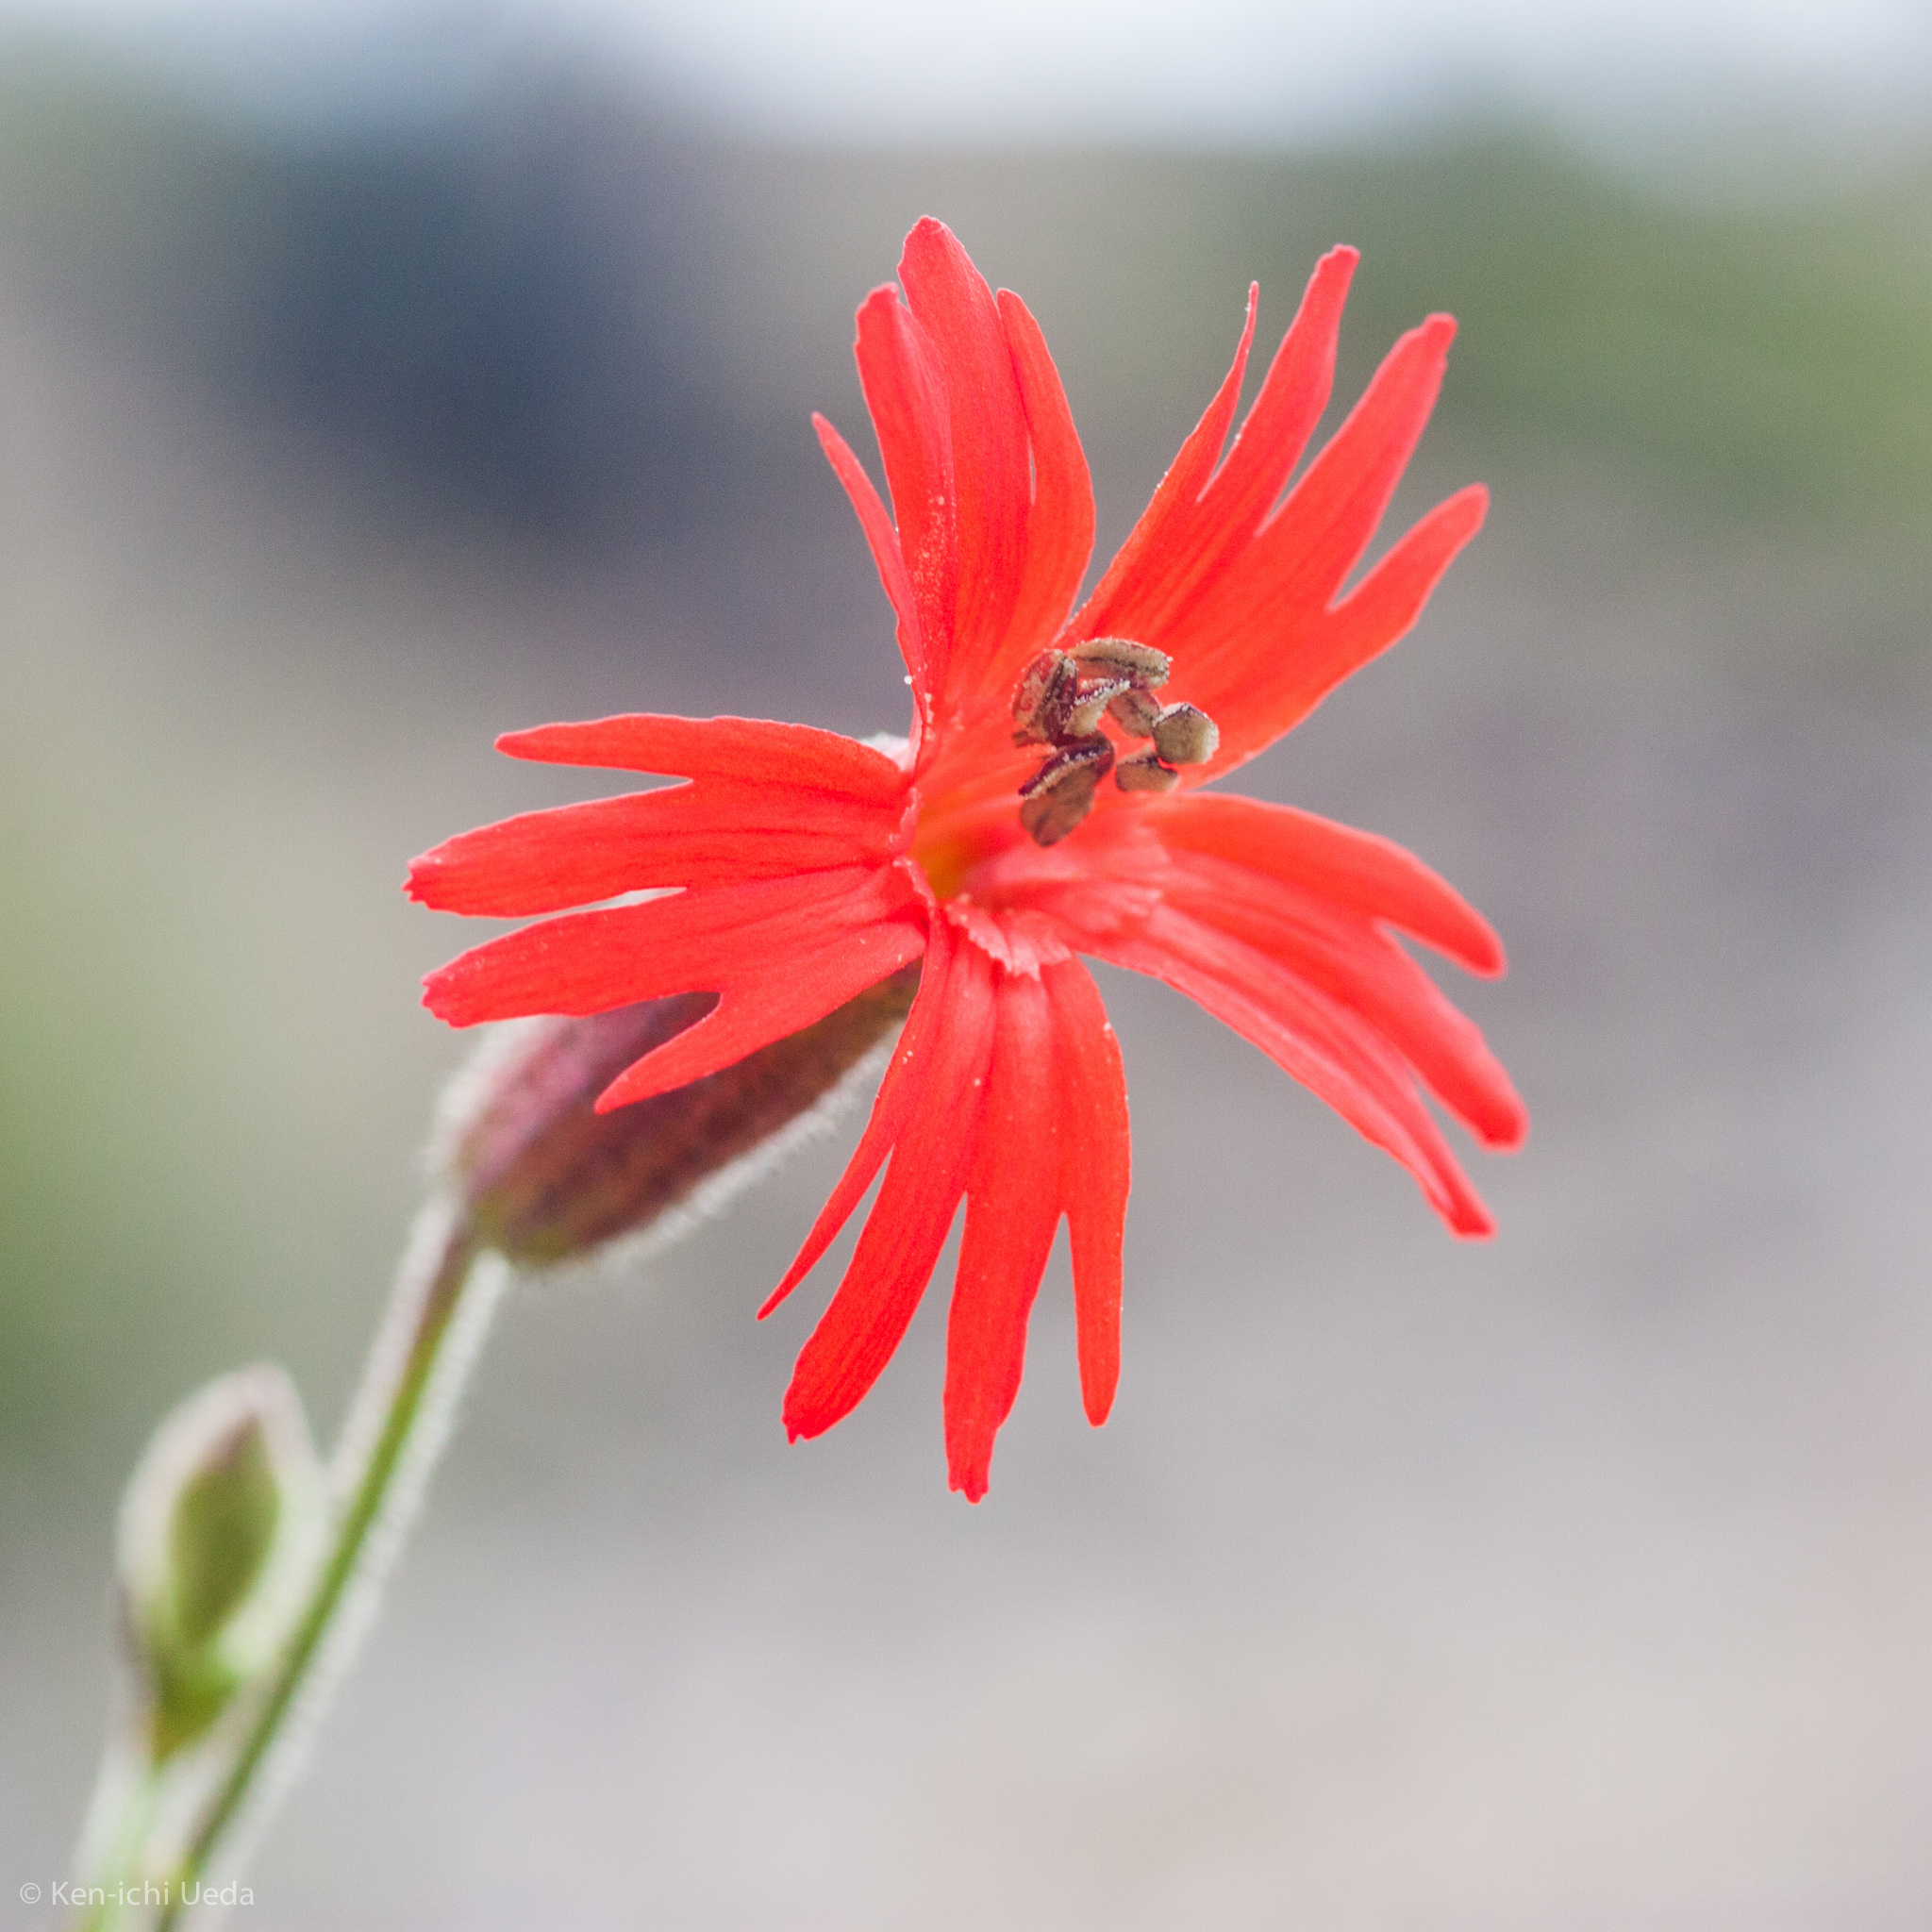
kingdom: Plantae
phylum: Tracheophyta
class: Magnoliopsida
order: Caryophyllales
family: Caryophyllaceae
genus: Silene
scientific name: Silene laciniata
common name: Indian-pink
